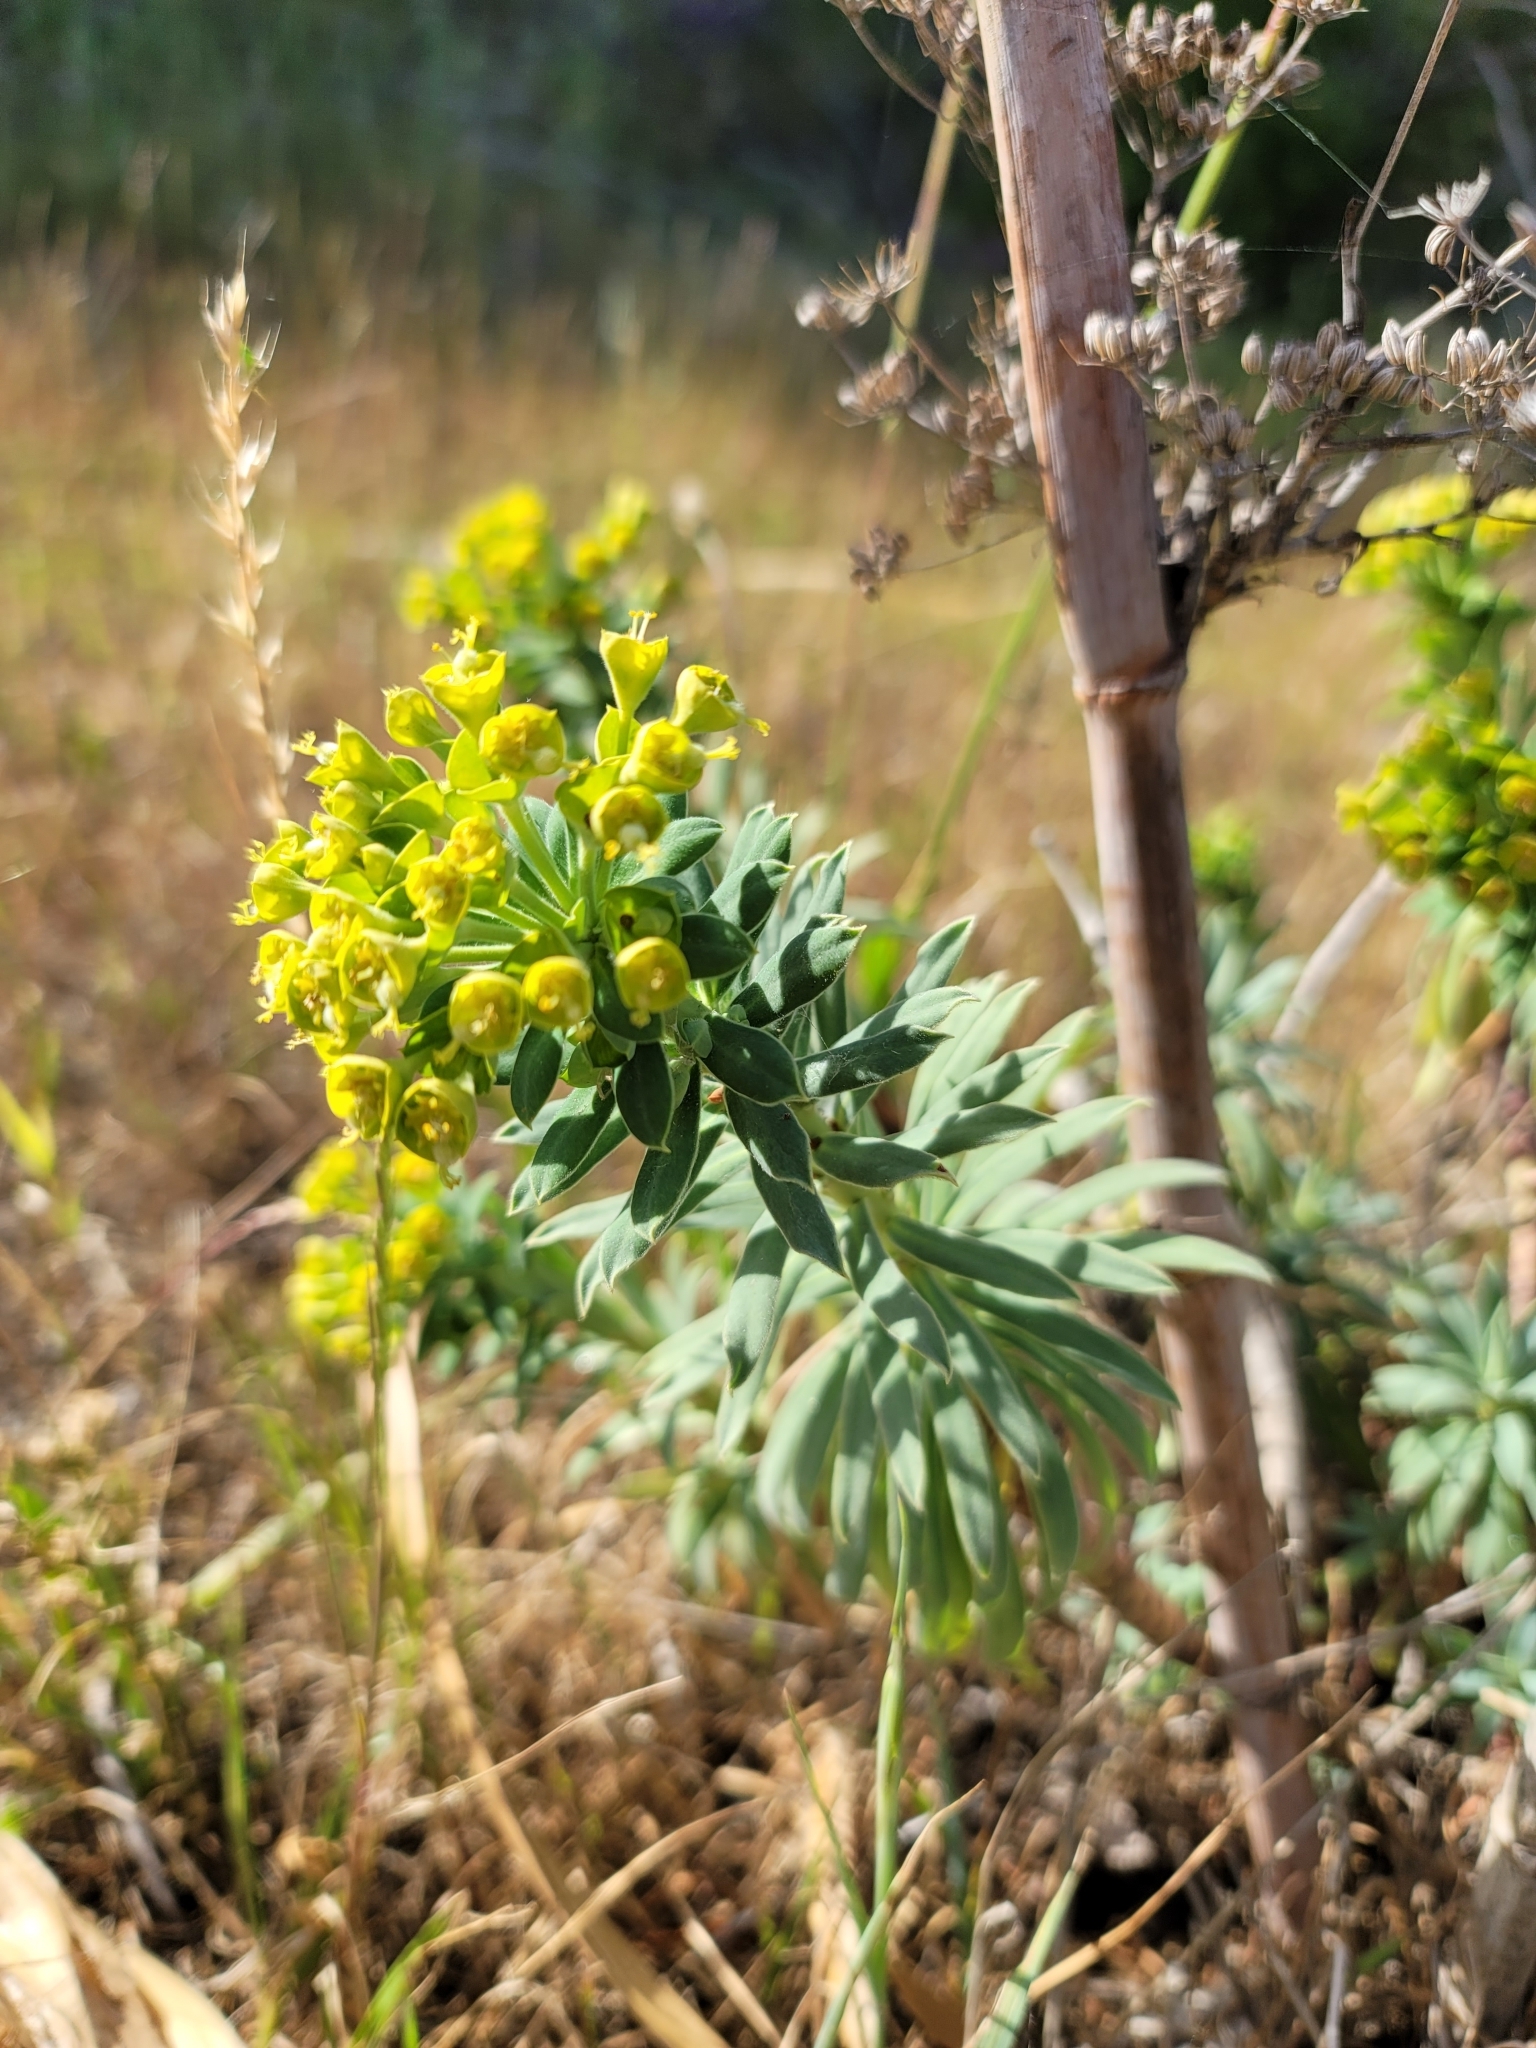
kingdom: Plantae
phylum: Tracheophyta
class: Magnoliopsida
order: Malpighiales
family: Euphorbiaceae
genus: Euphorbia
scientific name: Euphorbia characias
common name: Mediterranean spurge
